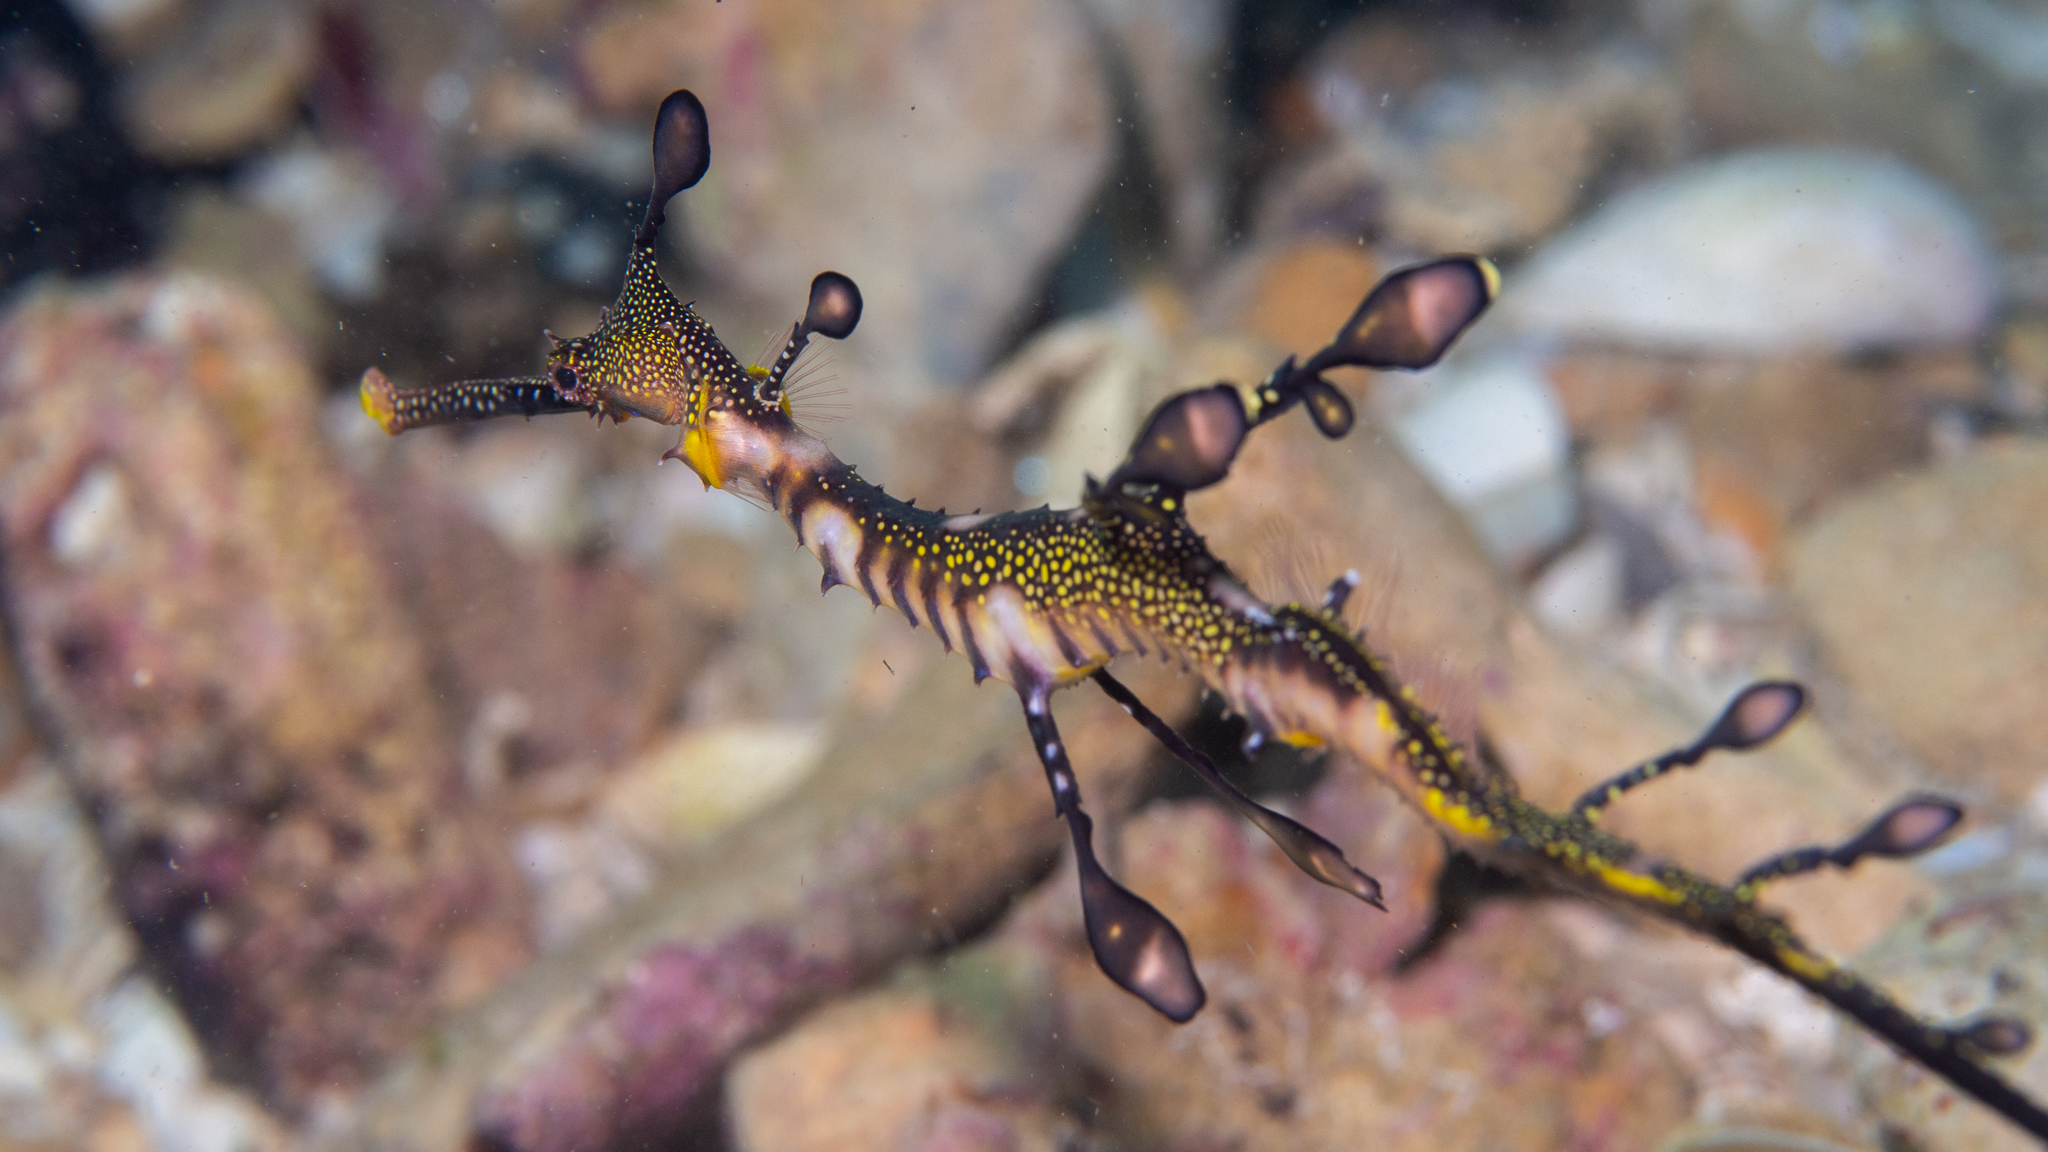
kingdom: Animalia
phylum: Chordata
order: Syngnathiformes
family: Syngnathidae
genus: Phyllopteryx
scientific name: Phyllopteryx taeniolatus
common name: Common seadragon
